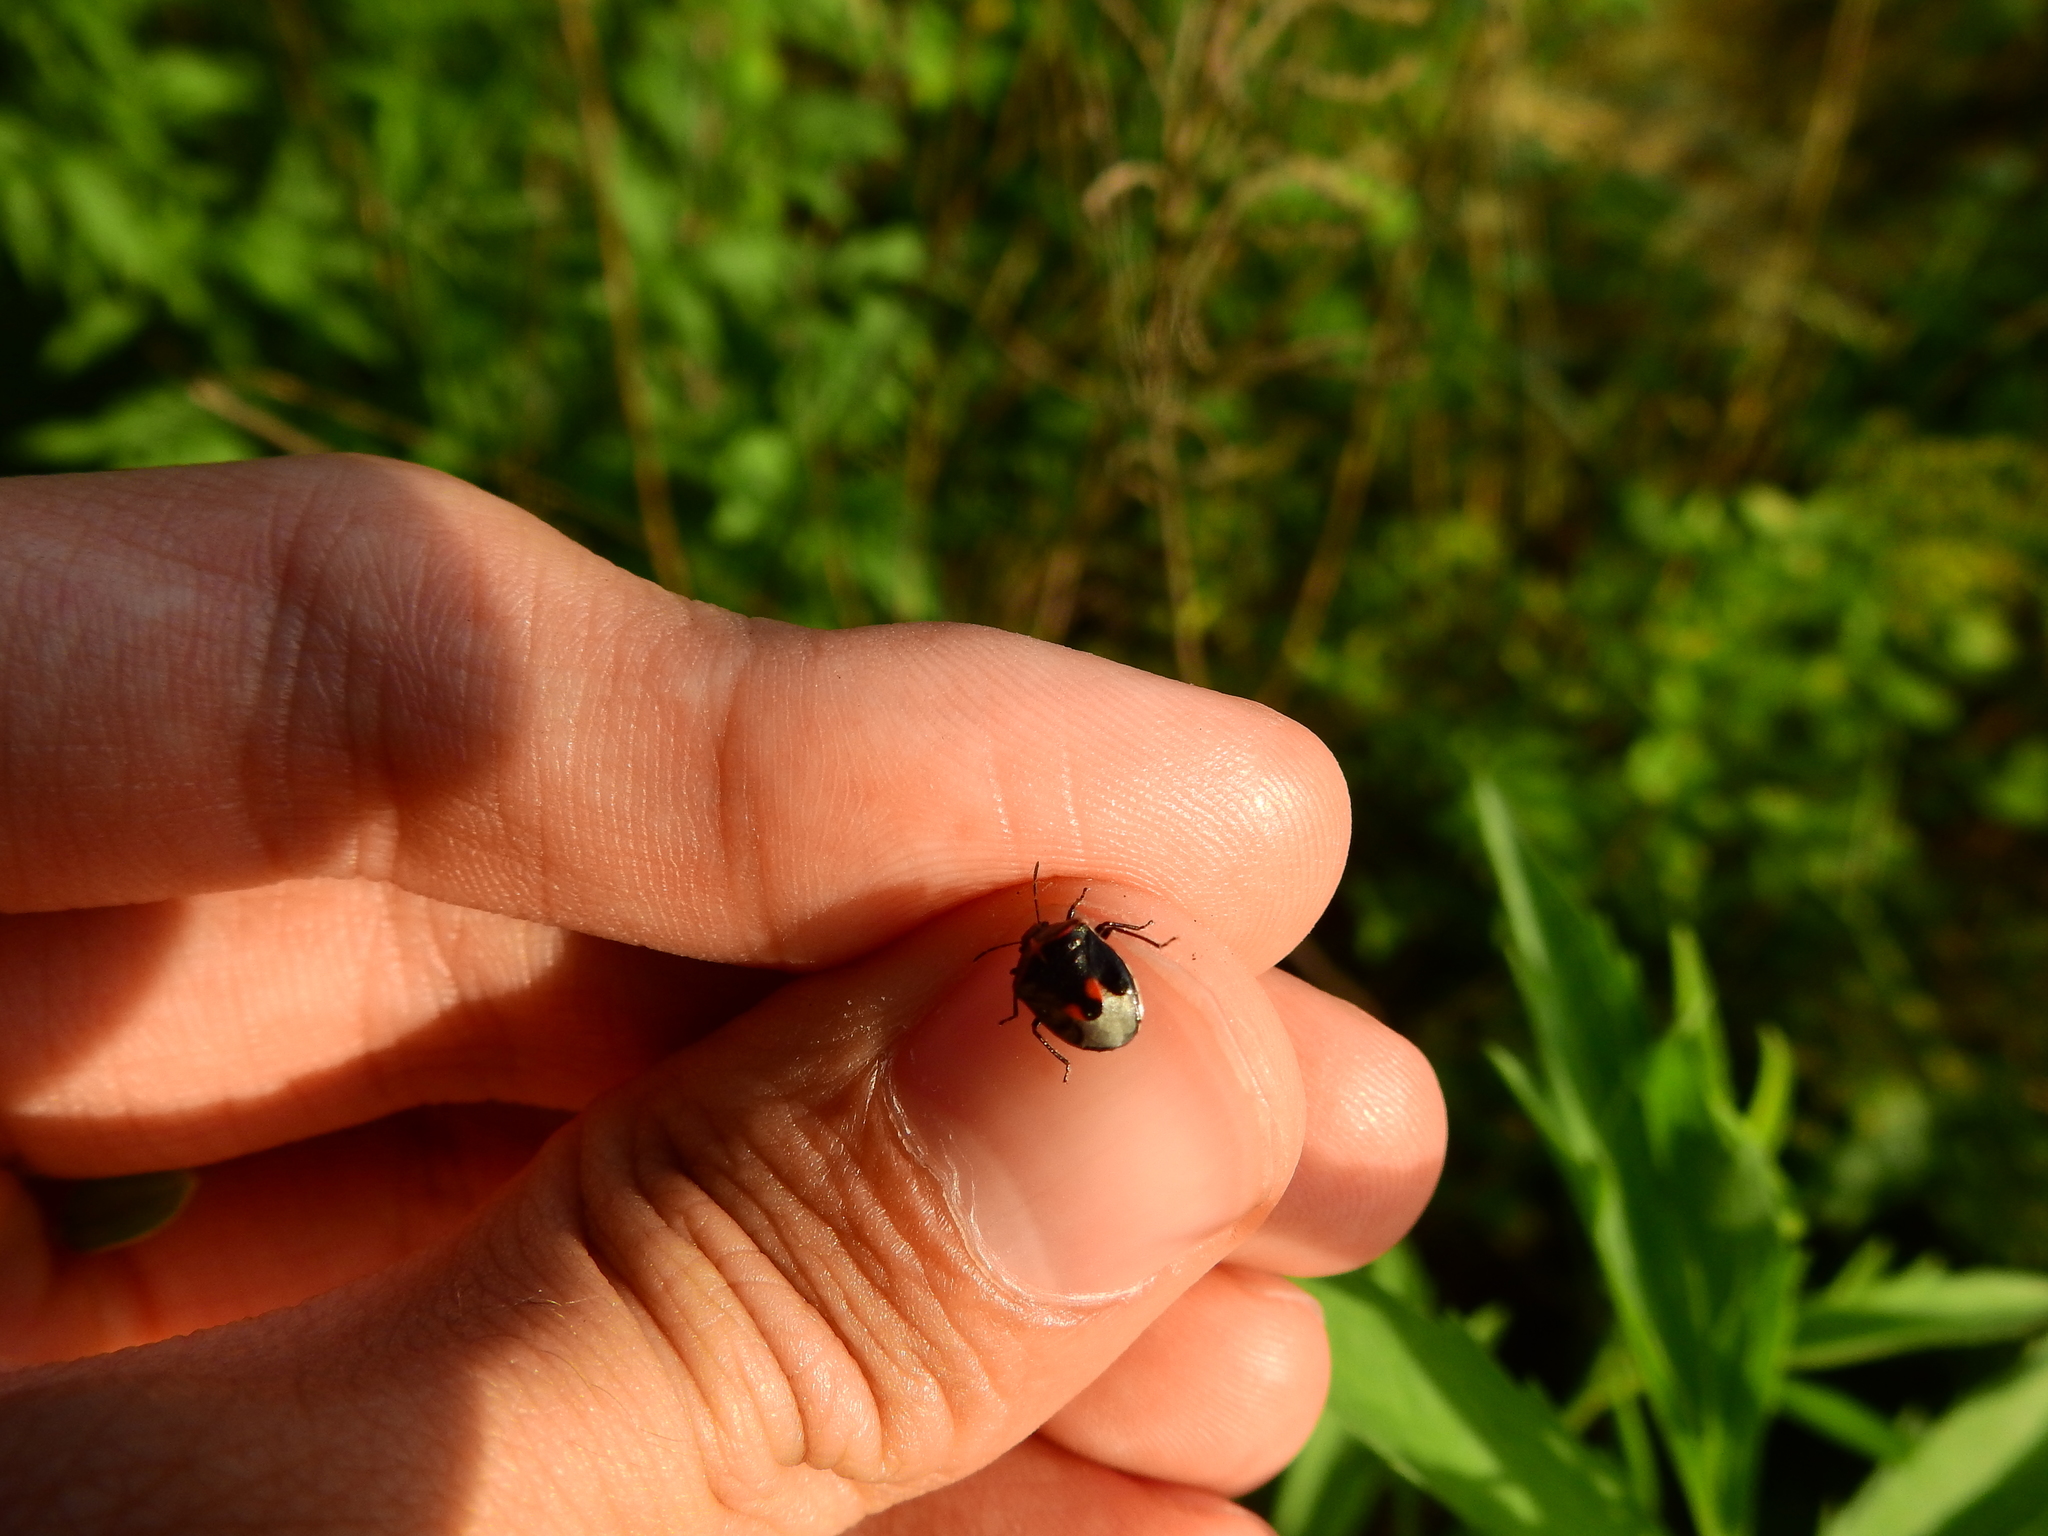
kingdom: Animalia
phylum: Arthropoda
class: Insecta
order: Hemiptera
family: Pentatomidae
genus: Cosmopepla
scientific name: Cosmopepla lintneriana
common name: Twice-stabbed stink bug
